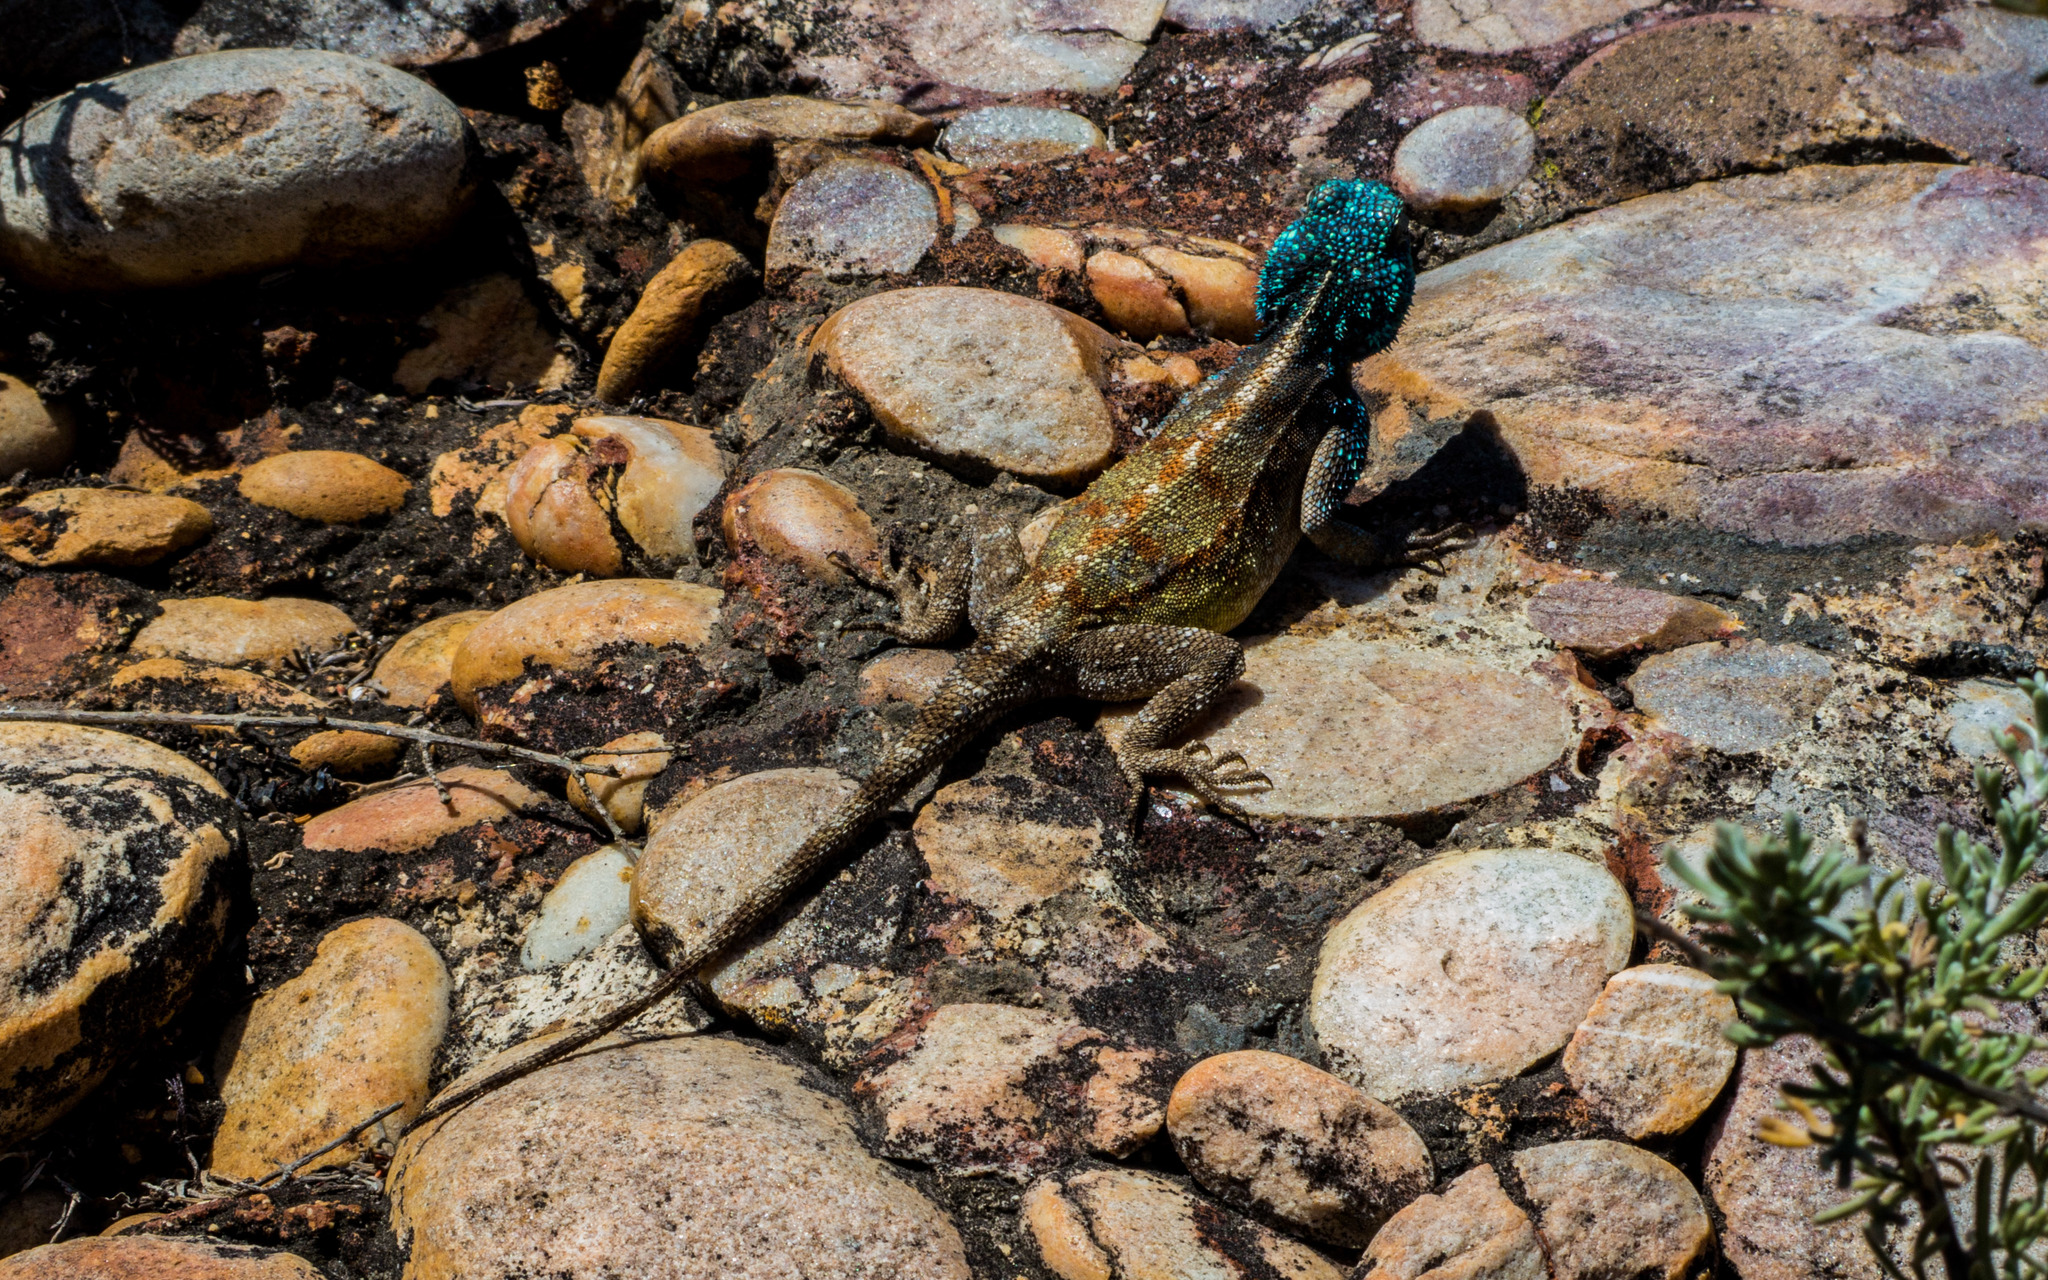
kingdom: Animalia
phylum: Chordata
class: Squamata
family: Agamidae
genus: Agama
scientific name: Agama atra
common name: Southern african rock agama
